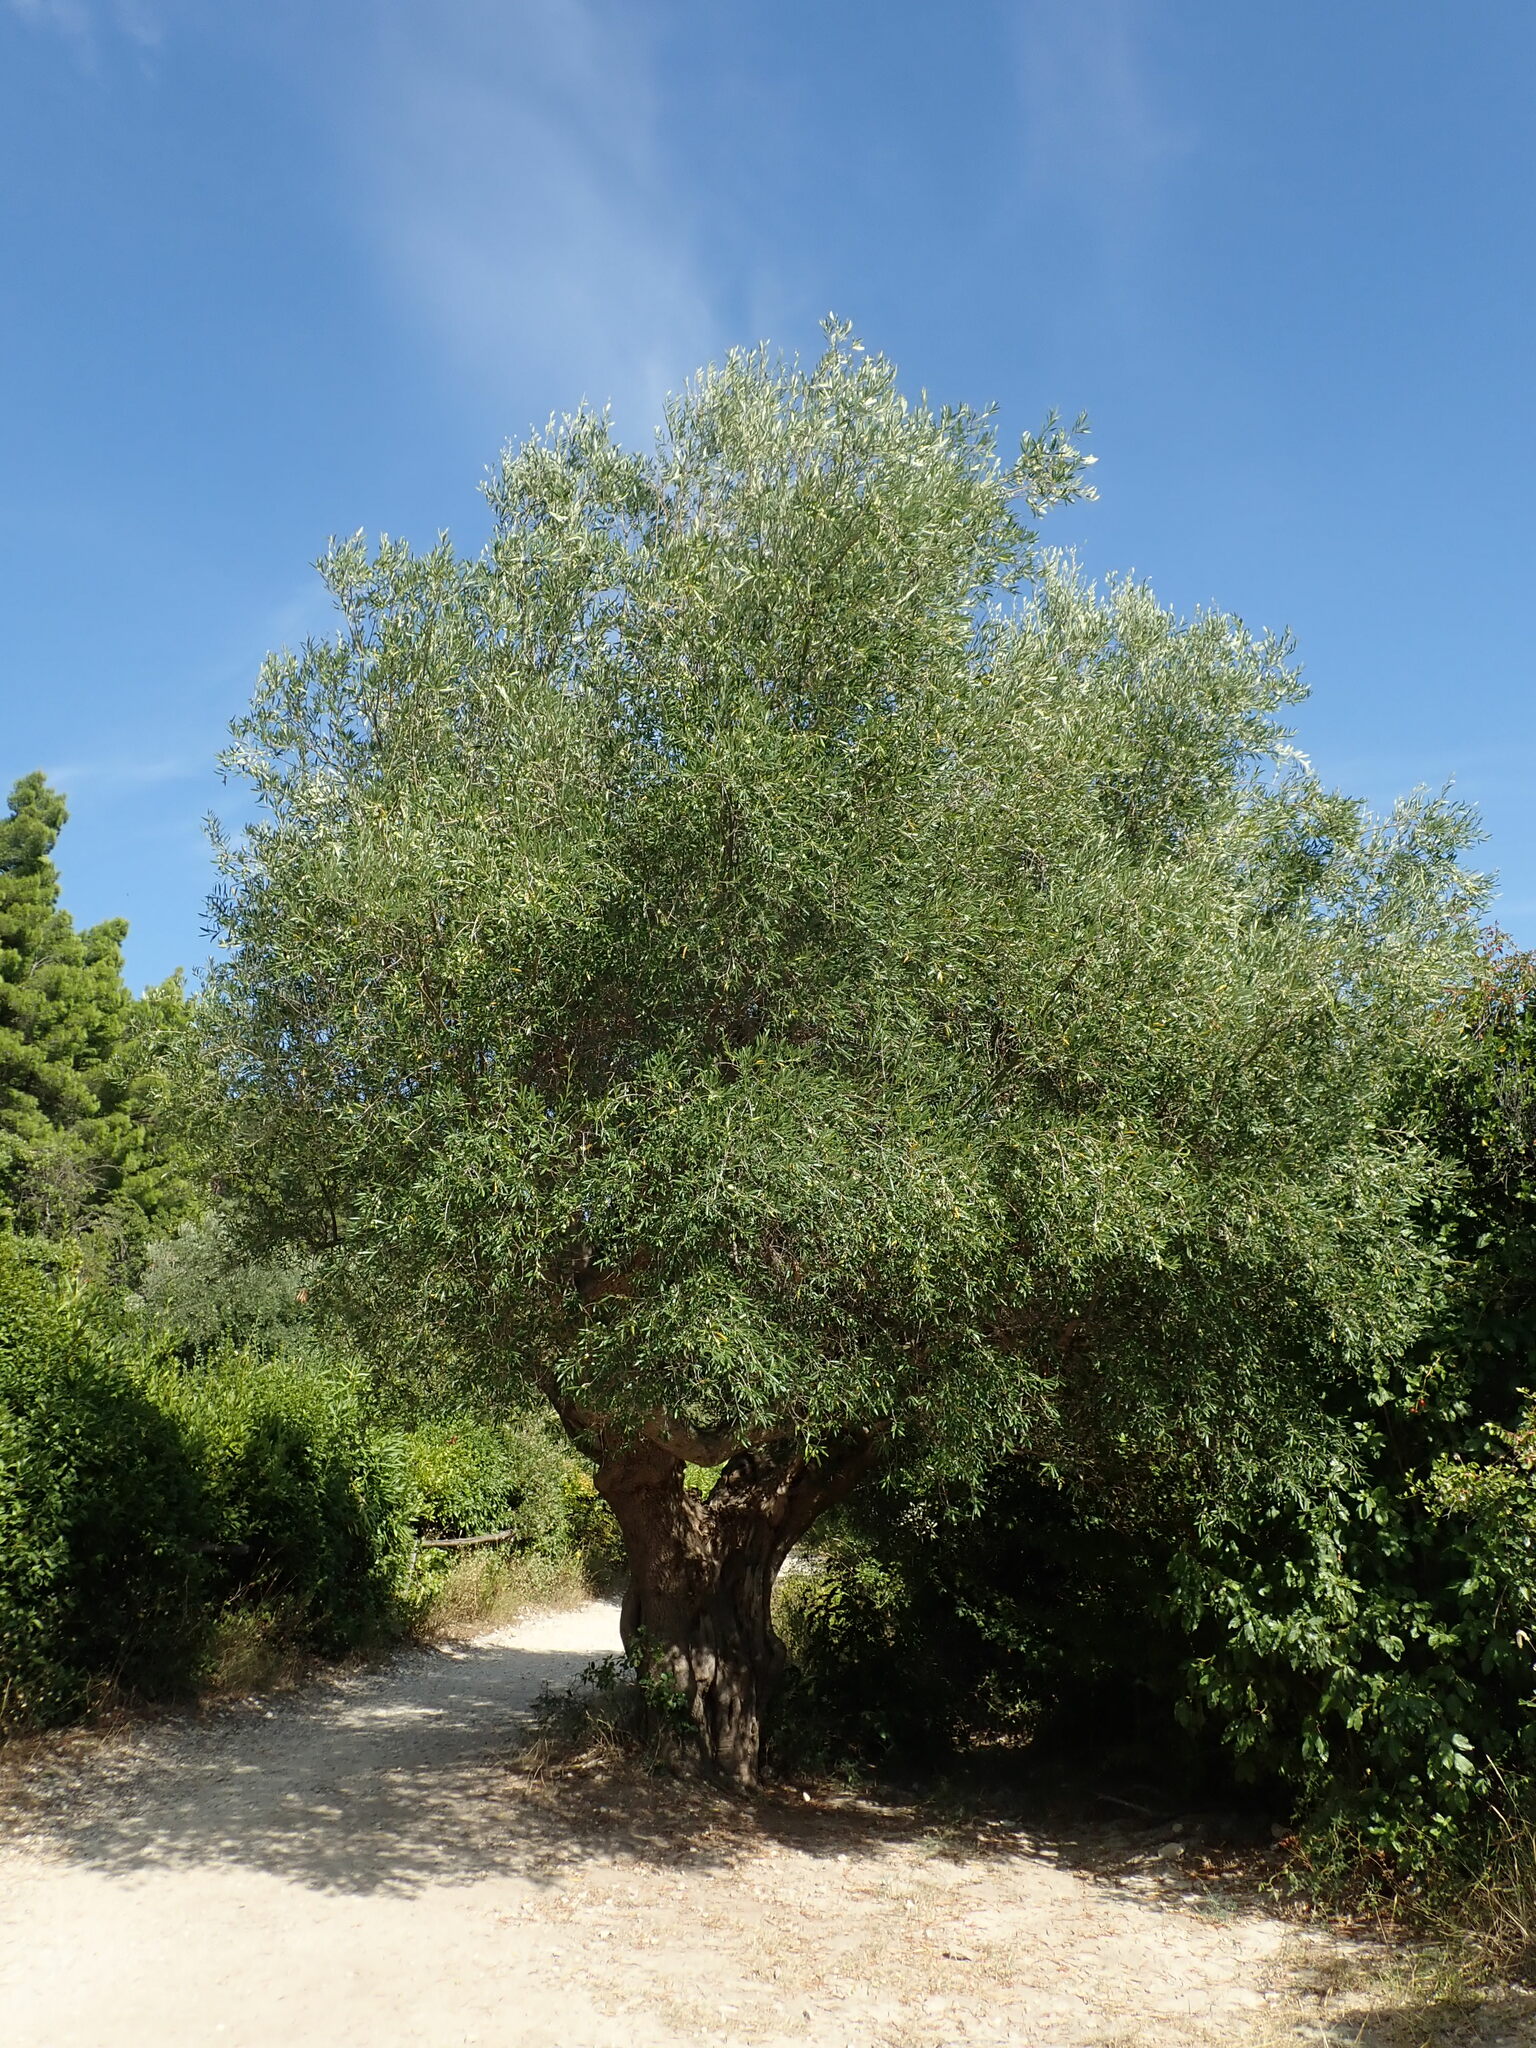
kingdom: Plantae
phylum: Tracheophyta
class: Magnoliopsida
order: Lamiales
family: Oleaceae
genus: Olea
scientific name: Olea europaea
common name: Olive
